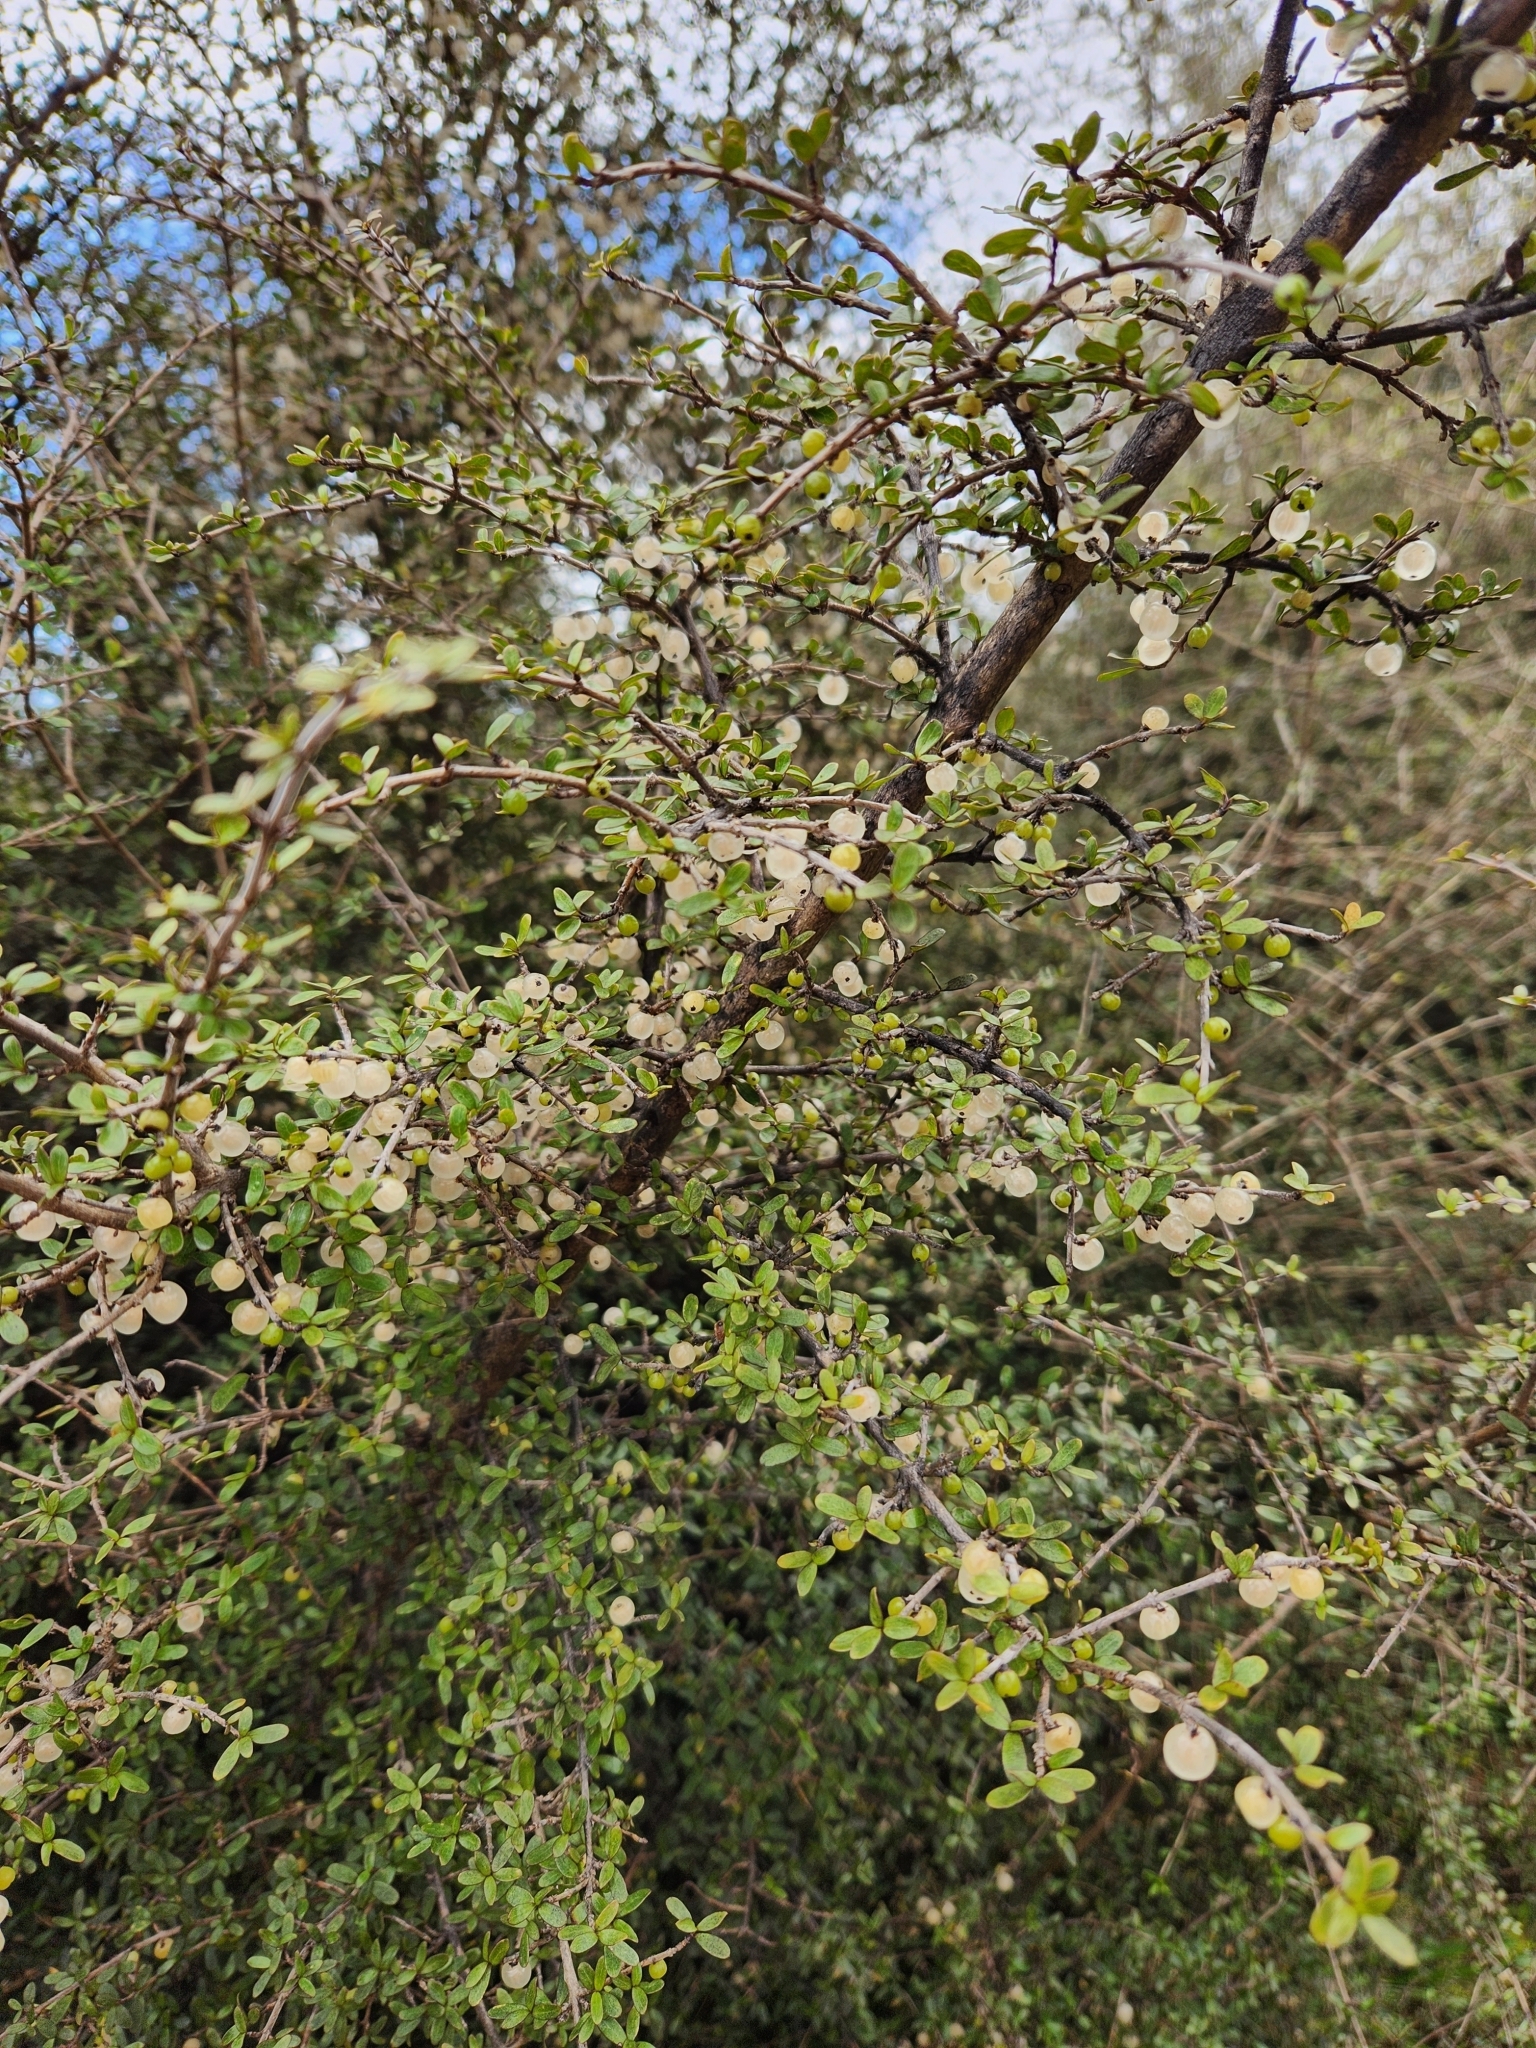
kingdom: Plantae
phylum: Tracheophyta
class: Magnoliopsida
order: Gentianales
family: Rubiaceae
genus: Coprosma
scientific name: Coprosma dumosa
